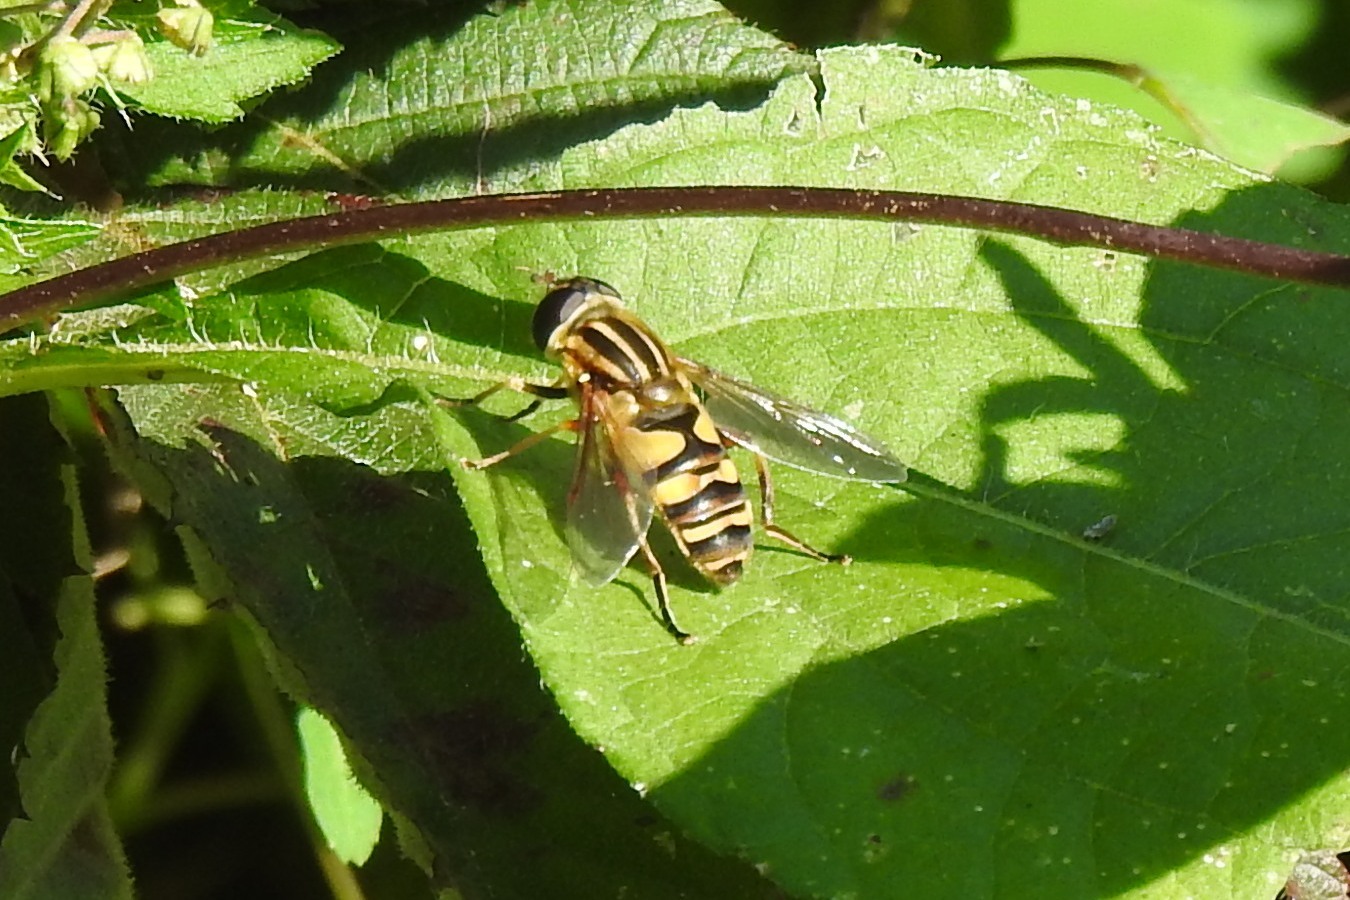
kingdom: Animalia
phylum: Arthropoda
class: Insecta
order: Diptera
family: Syrphidae
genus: Helophilus
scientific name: Helophilus fasciatus
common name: Narrow-headed marsh fly
